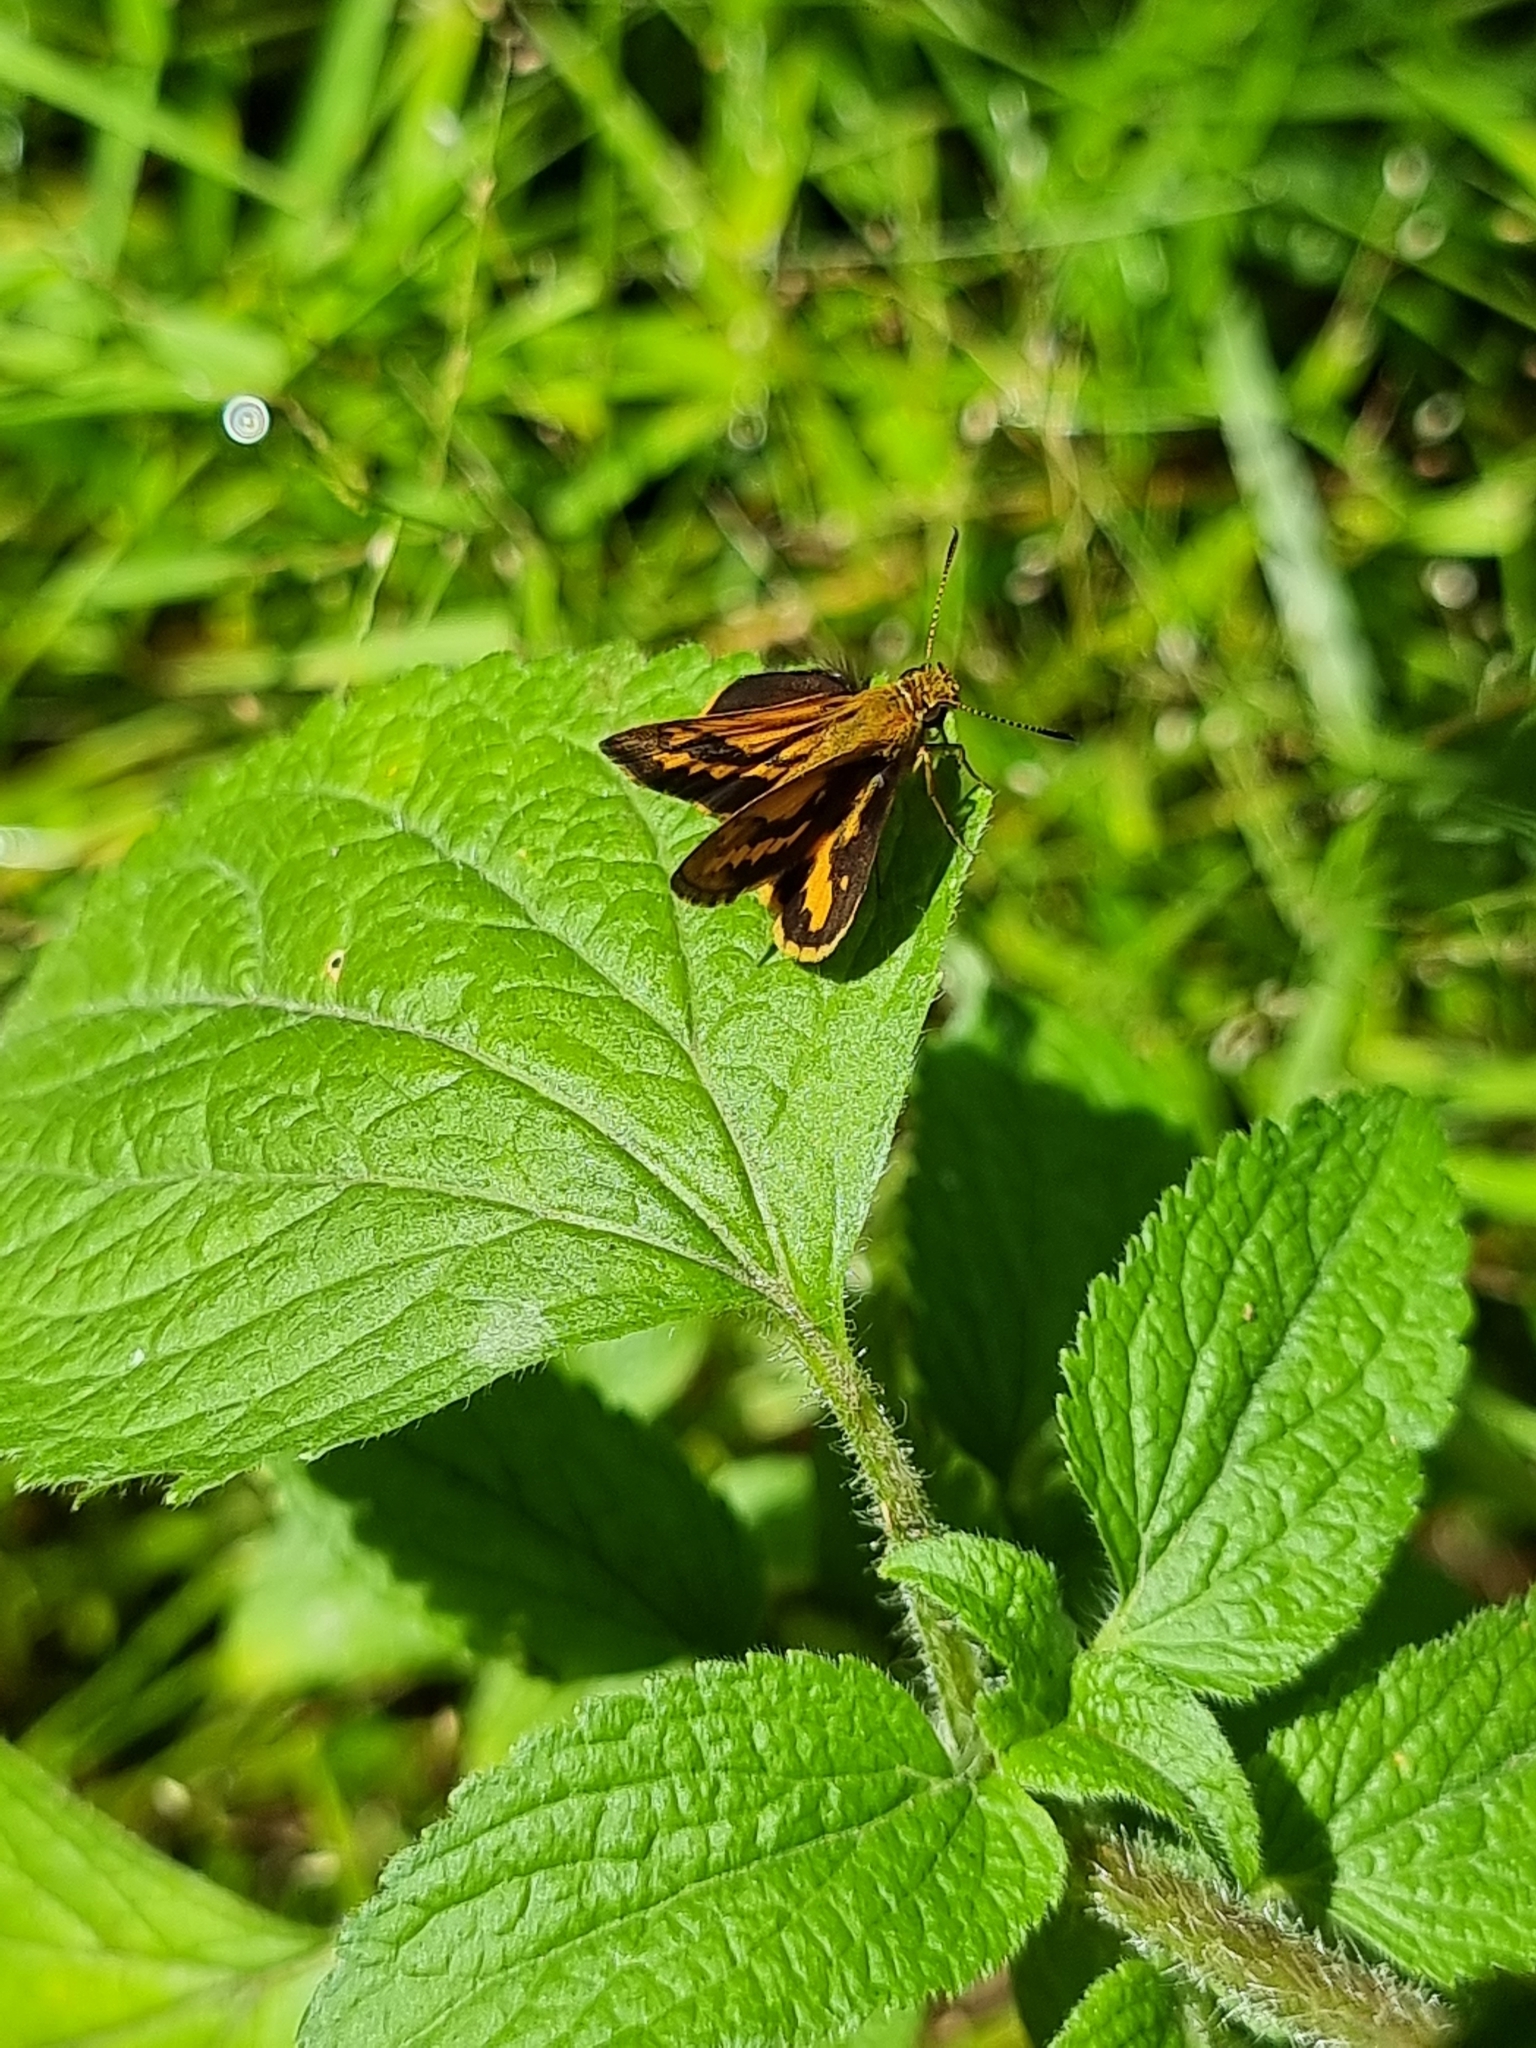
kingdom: Animalia
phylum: Arthropoda
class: Insecta
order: Lepidoptera
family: Hesperiidae
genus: Suniana
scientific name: Suniana sunias
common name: Wide-brand grass-dart
